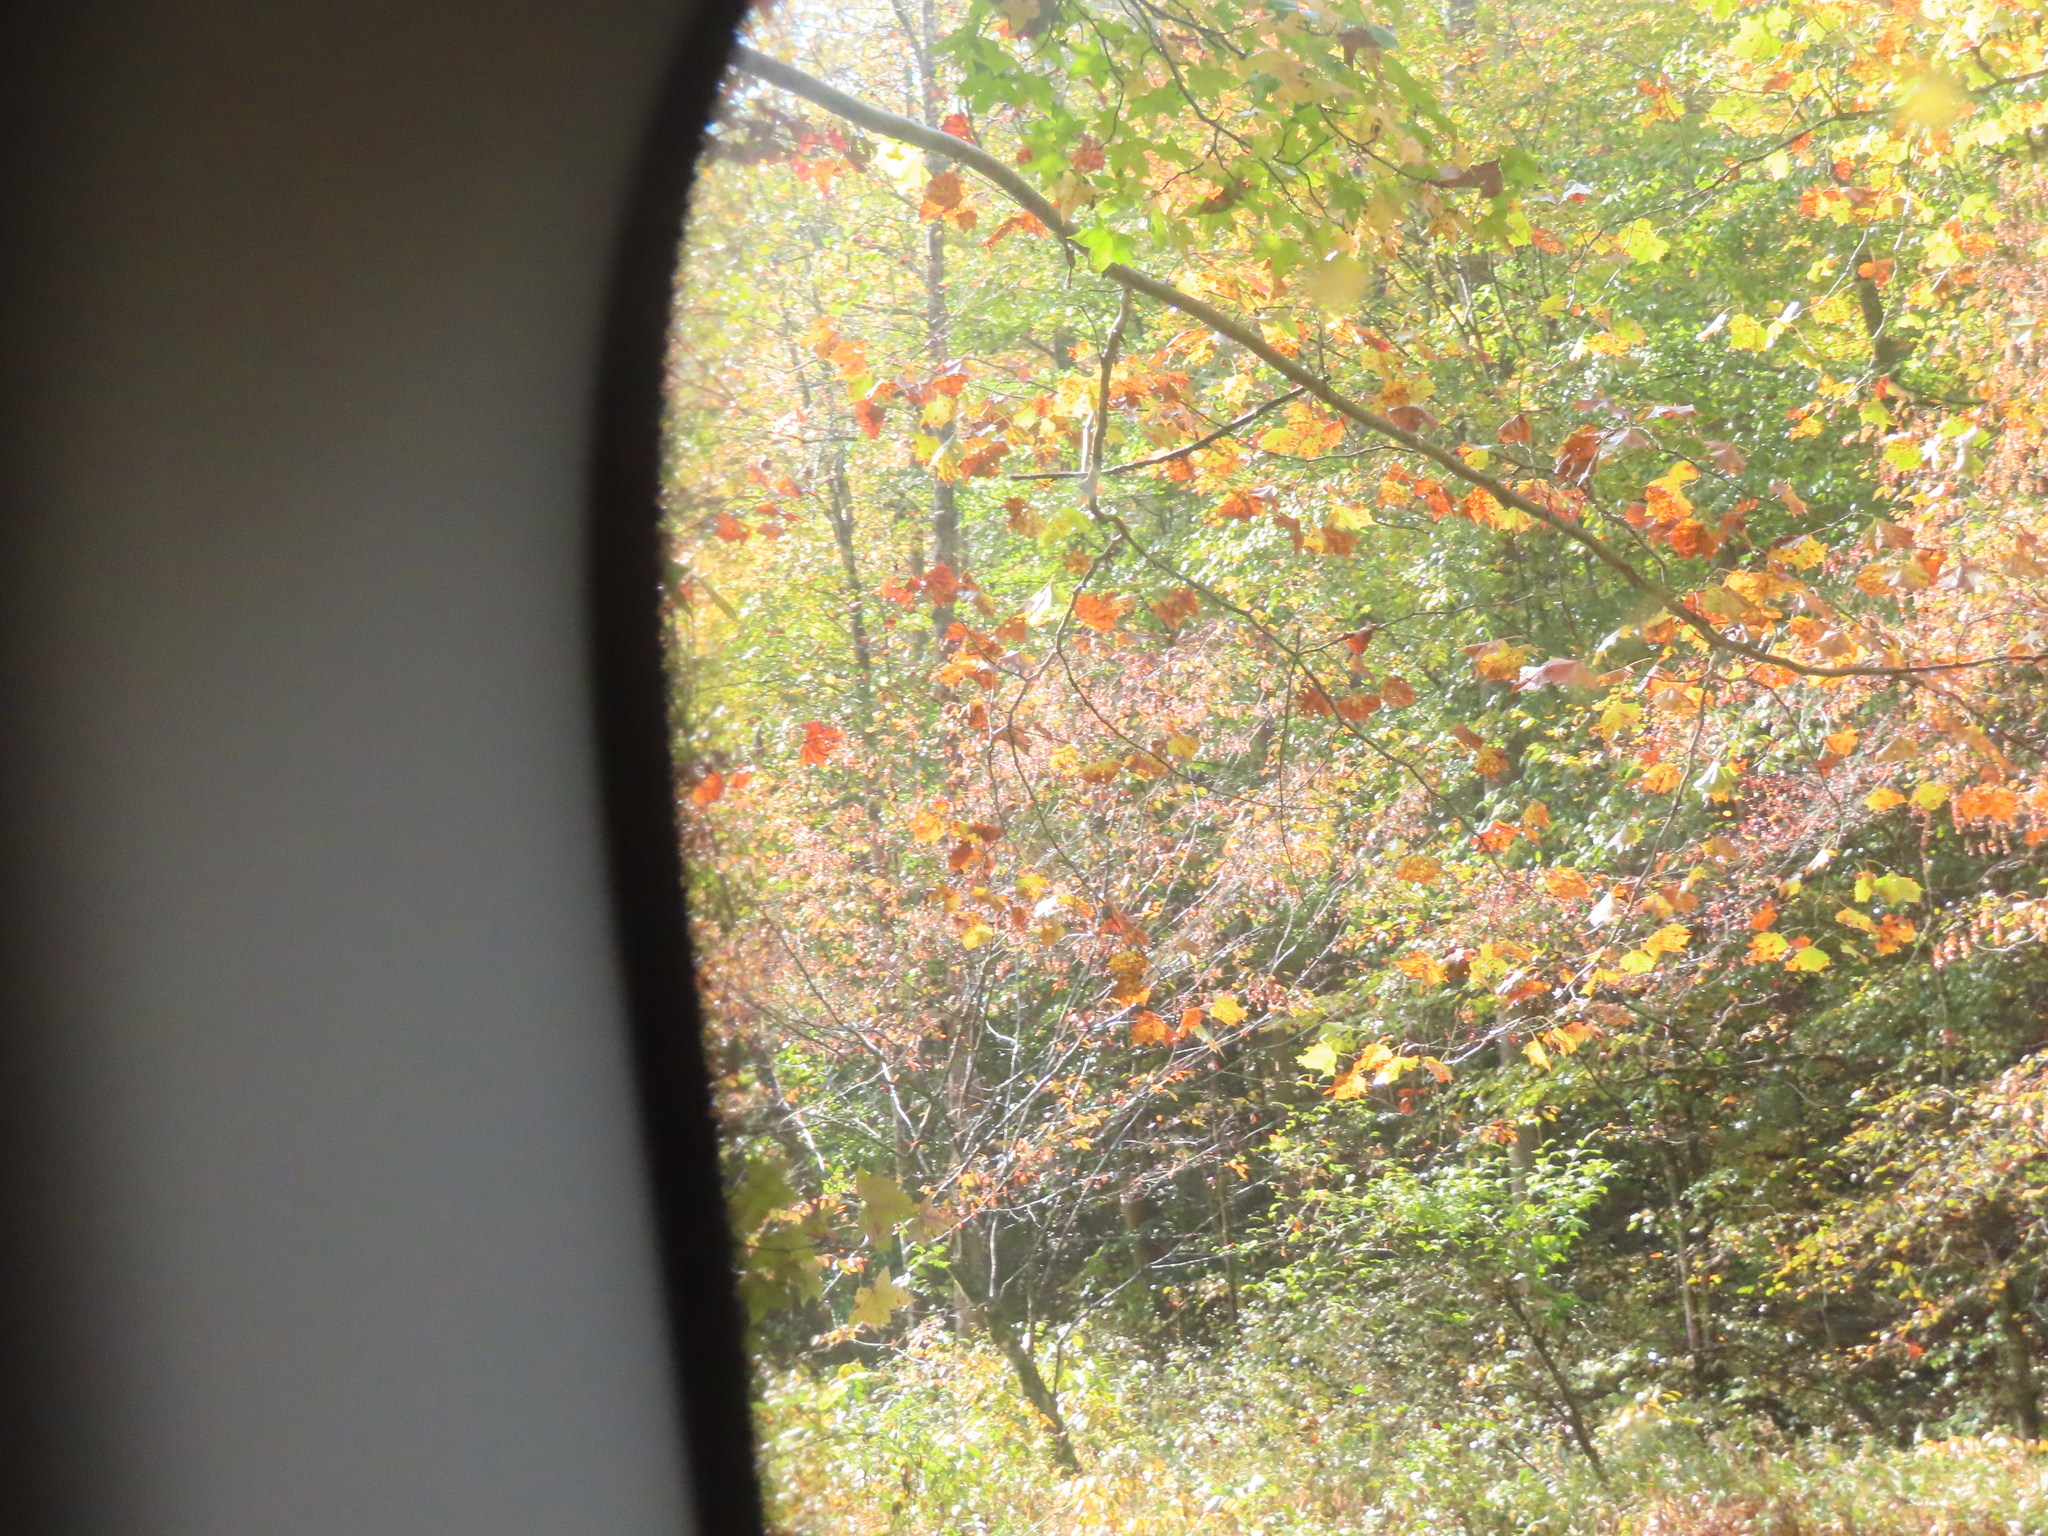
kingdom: Plantae
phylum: Tracheophyta
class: Magnoliopsida
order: Proteales
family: Platanaceae
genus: Platanus
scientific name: Platanus occidentalis
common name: American sycamore
